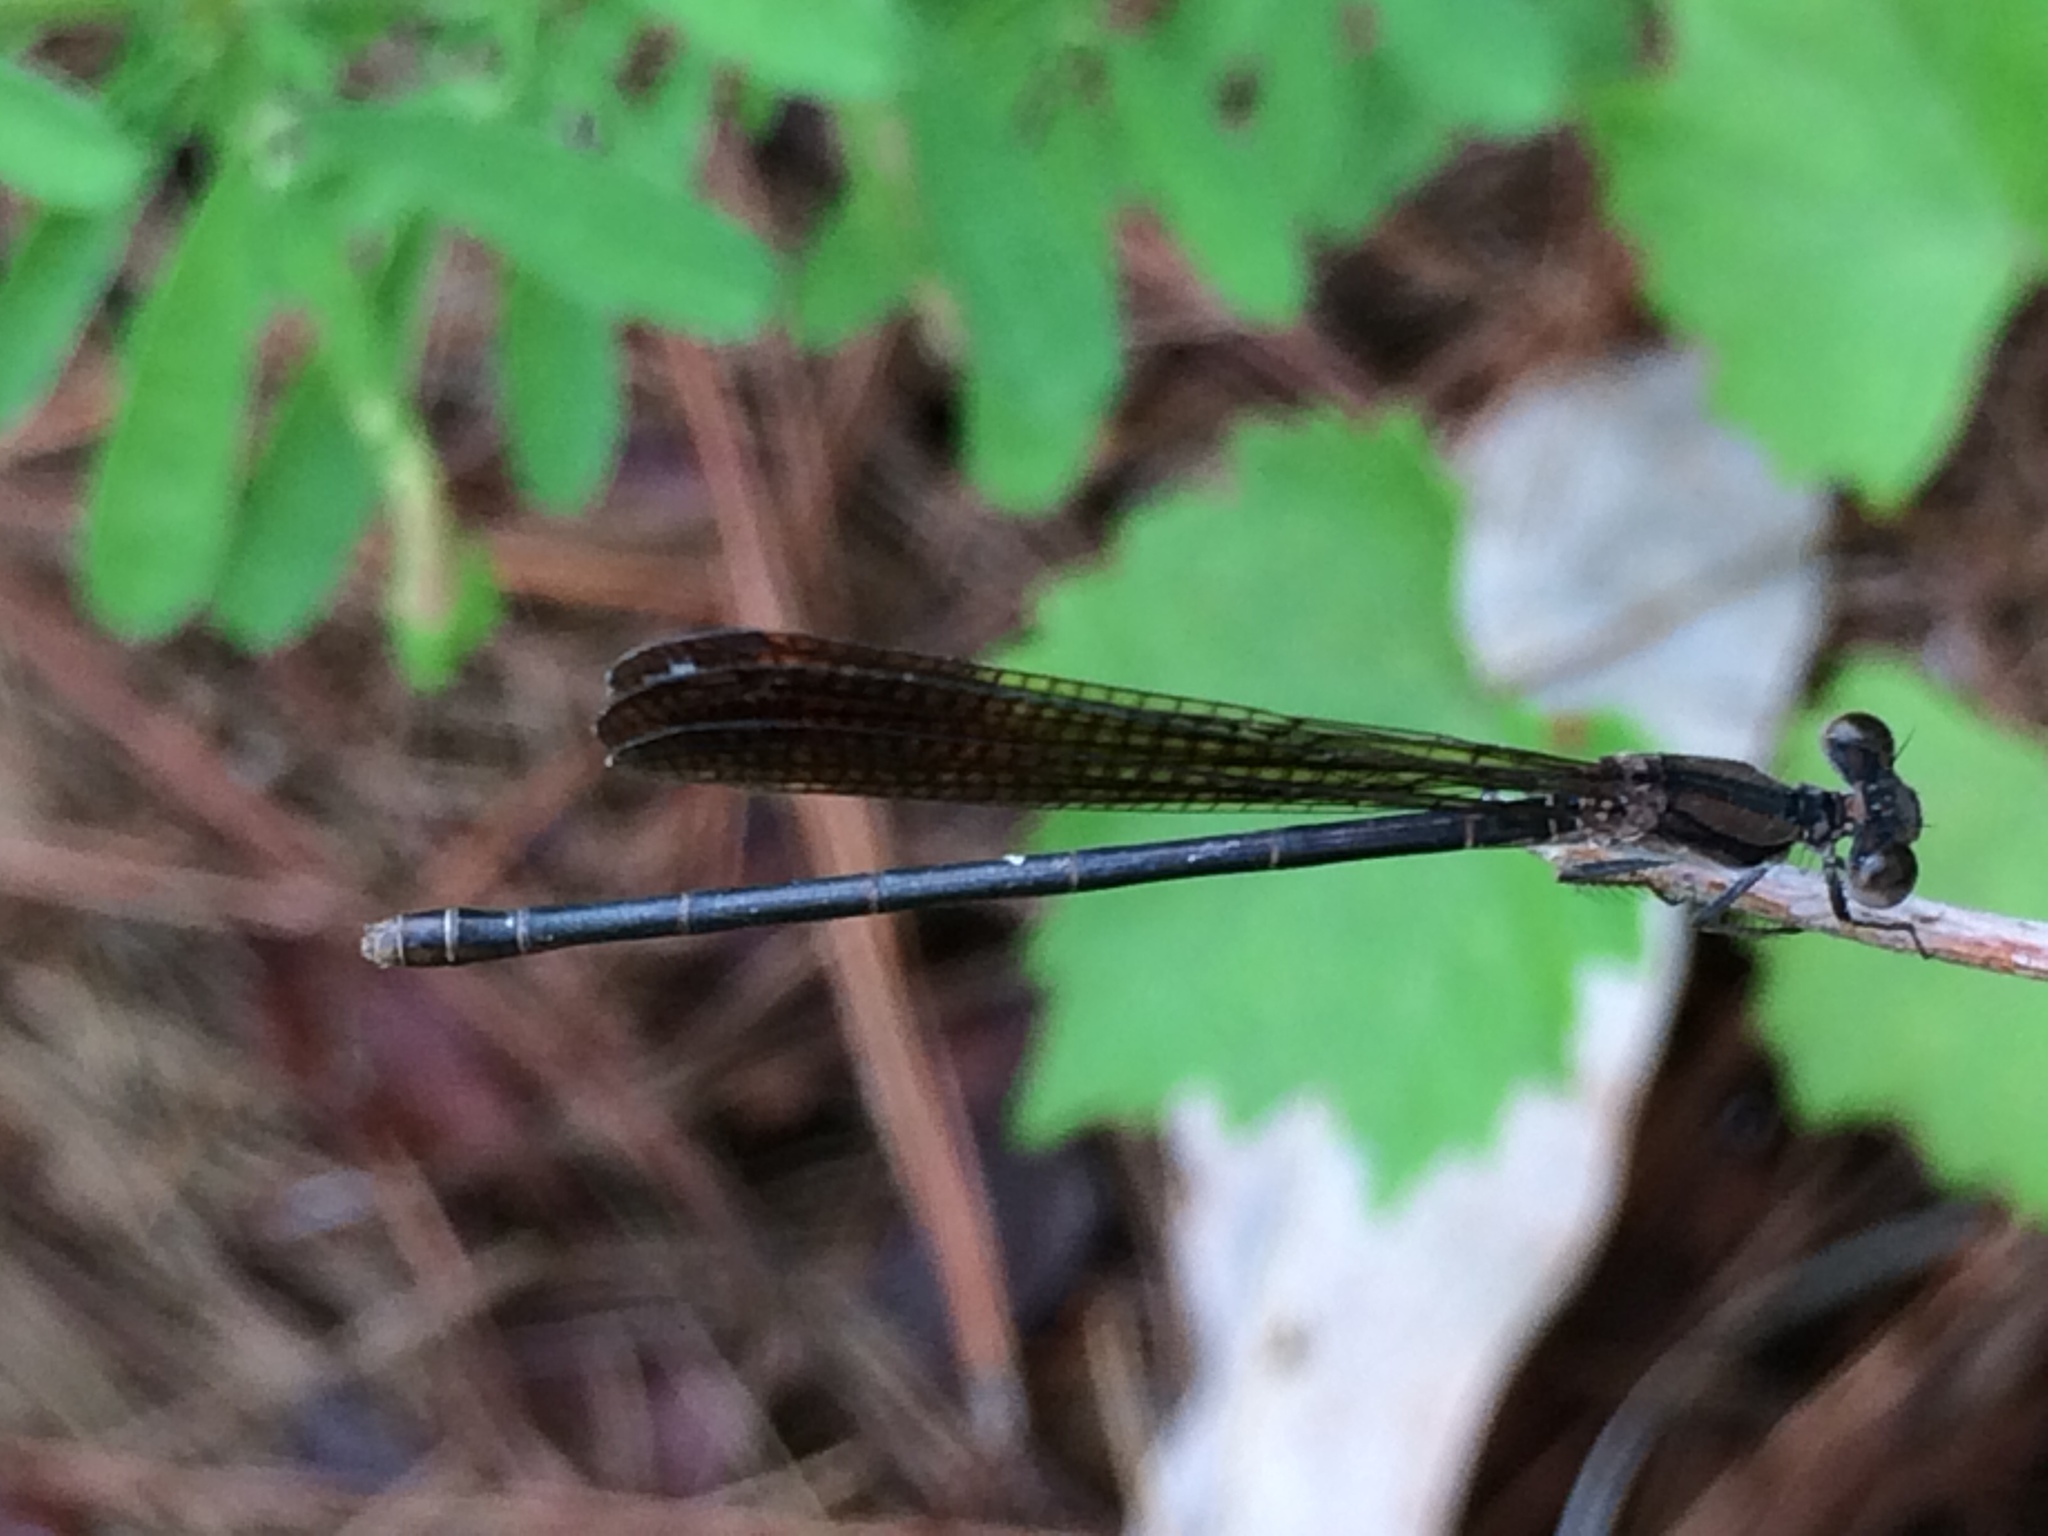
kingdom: Animalia
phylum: Arthropoda
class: Insecta
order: Odonata
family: Coenagrionidae
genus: Argia
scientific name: Argia fumipennis
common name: Variable dancer
